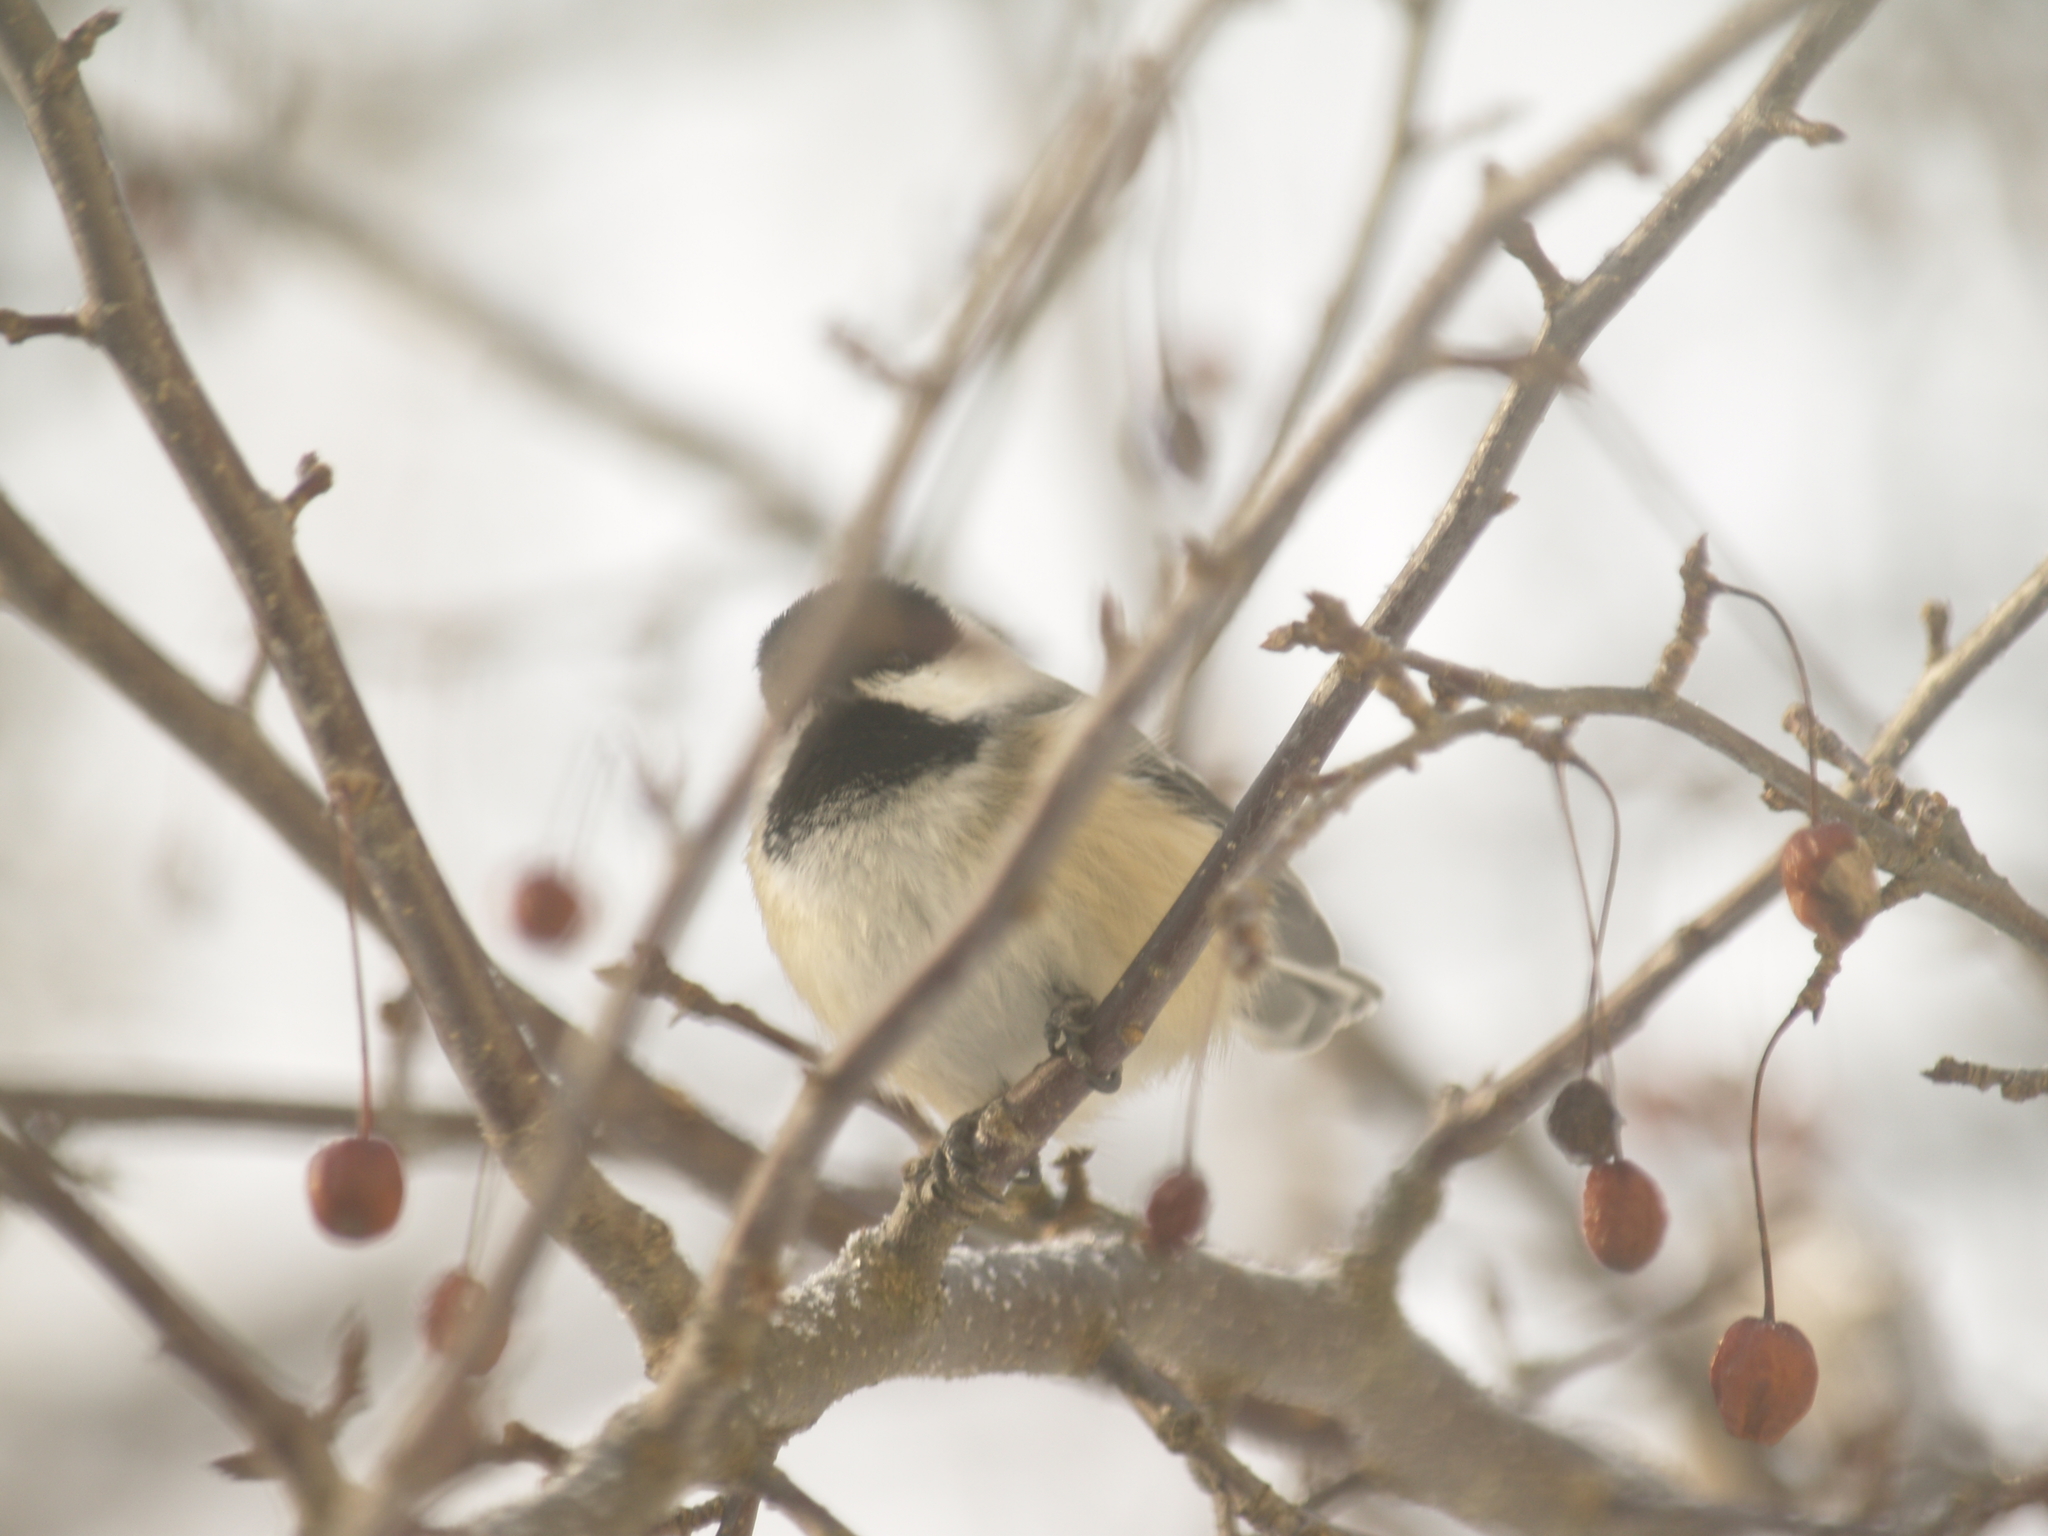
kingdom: Animalia
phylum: Chordata
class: Aves
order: Passeriformes
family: Paridae
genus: Poecile
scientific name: Poecile atricapillus
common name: Black-capped chickadee
